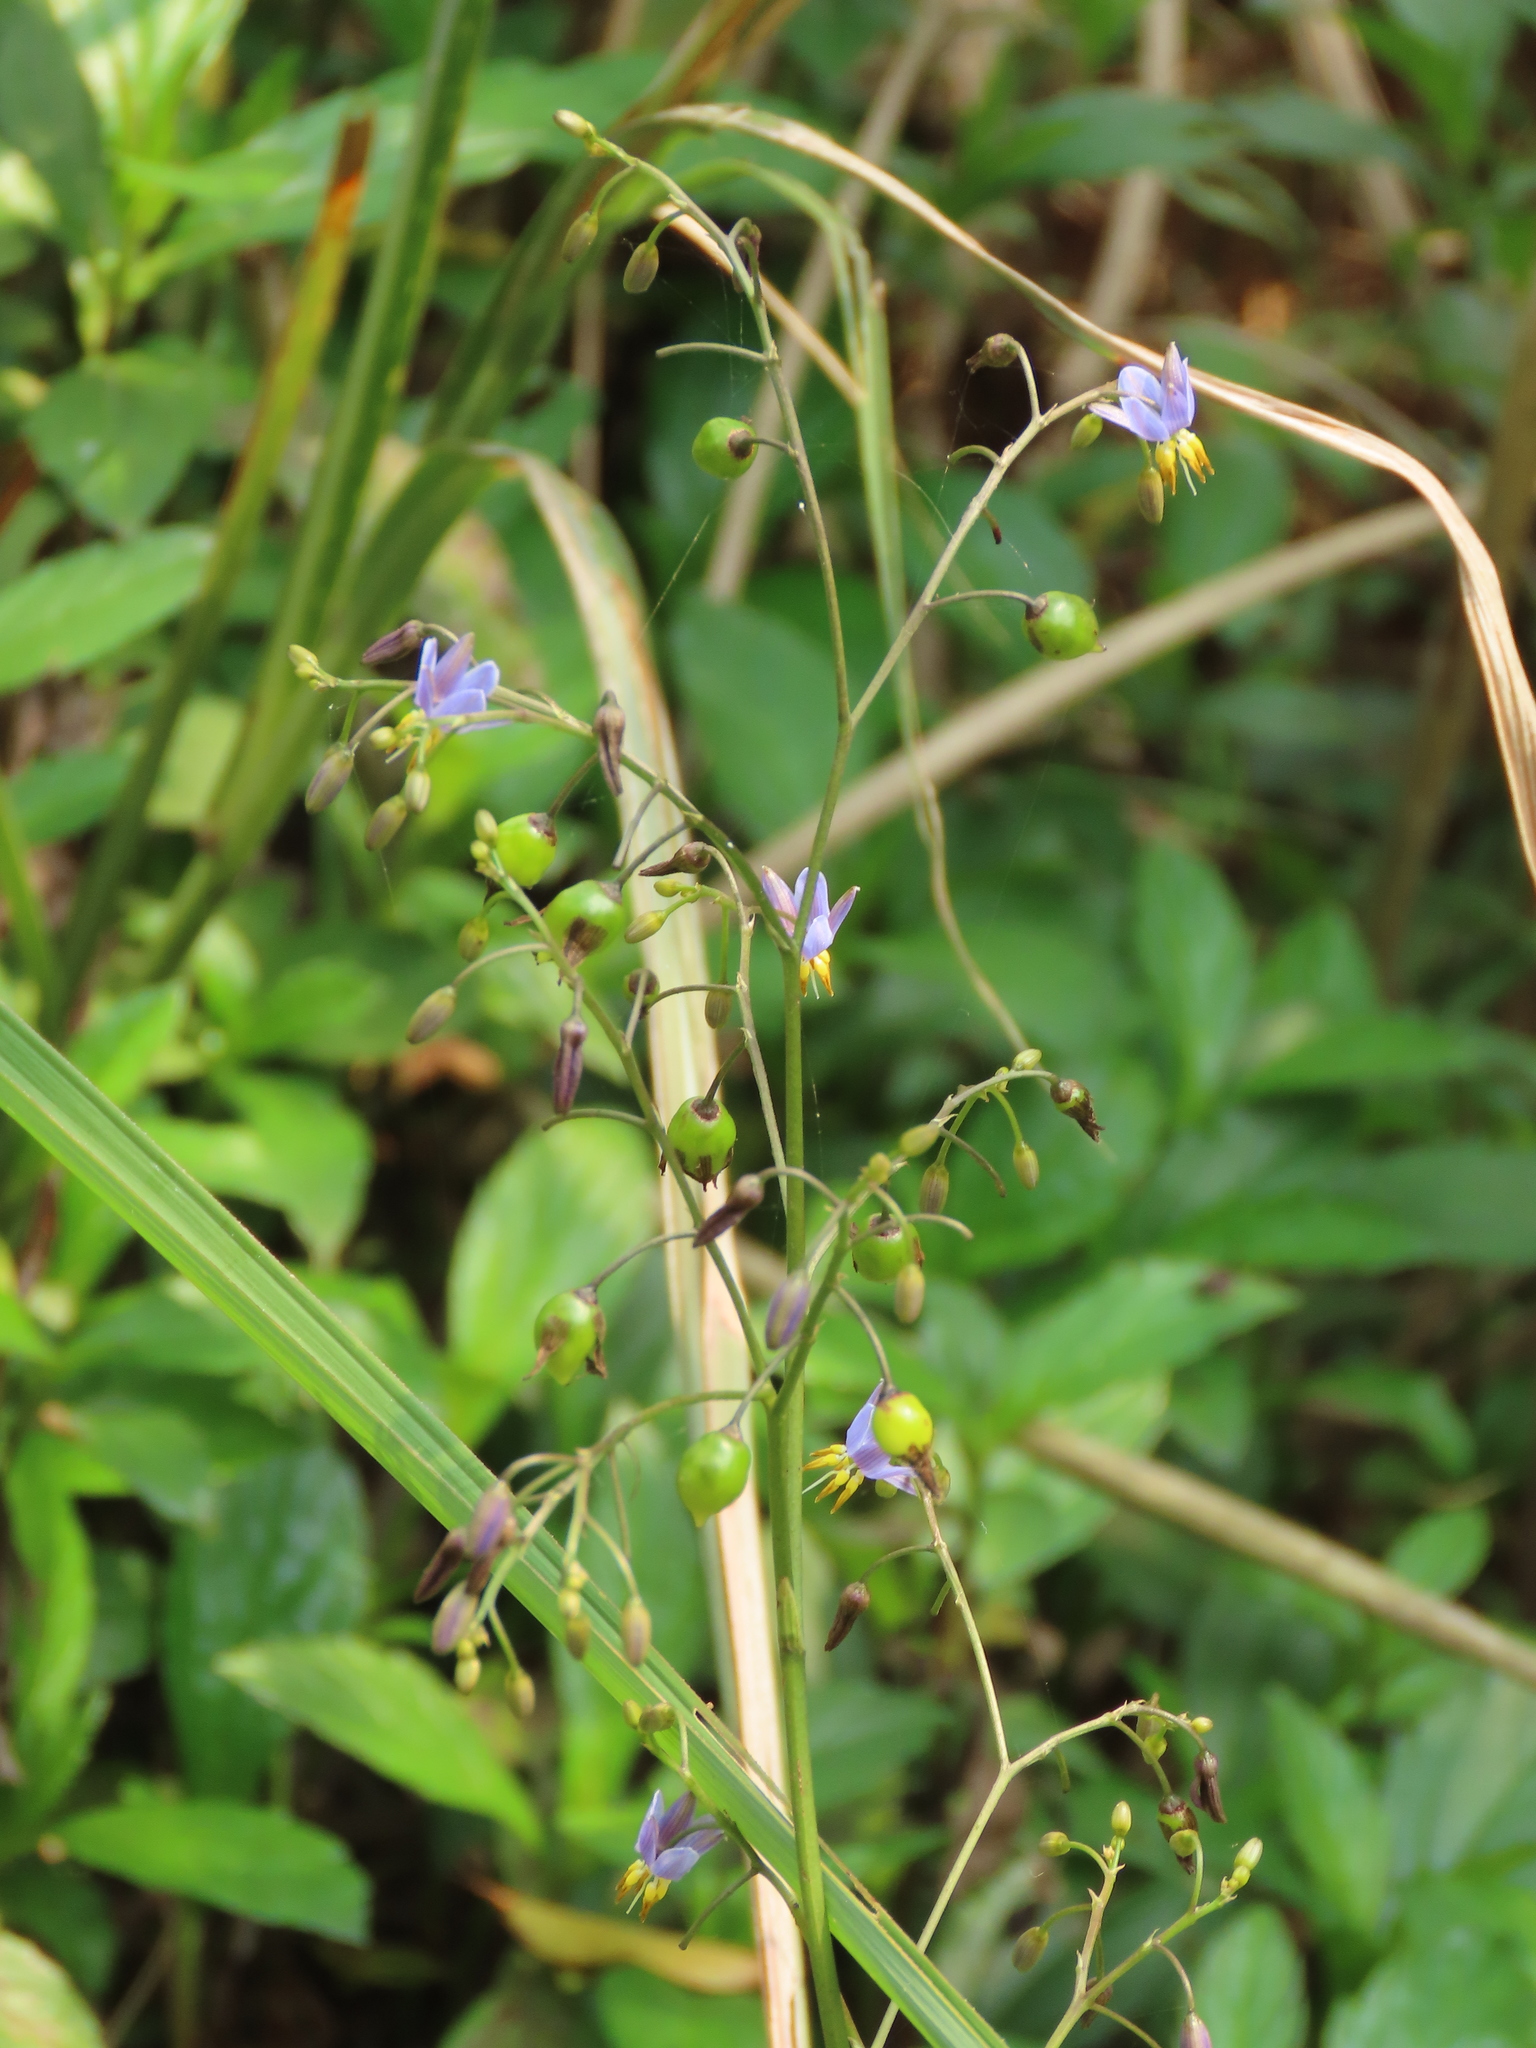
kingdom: Plantae
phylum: Tracheophyta
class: Liliopsida
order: Asparagales
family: Asphodelaceae
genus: Dianella
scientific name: Dianella ensifolia
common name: New zealand lilyplant
